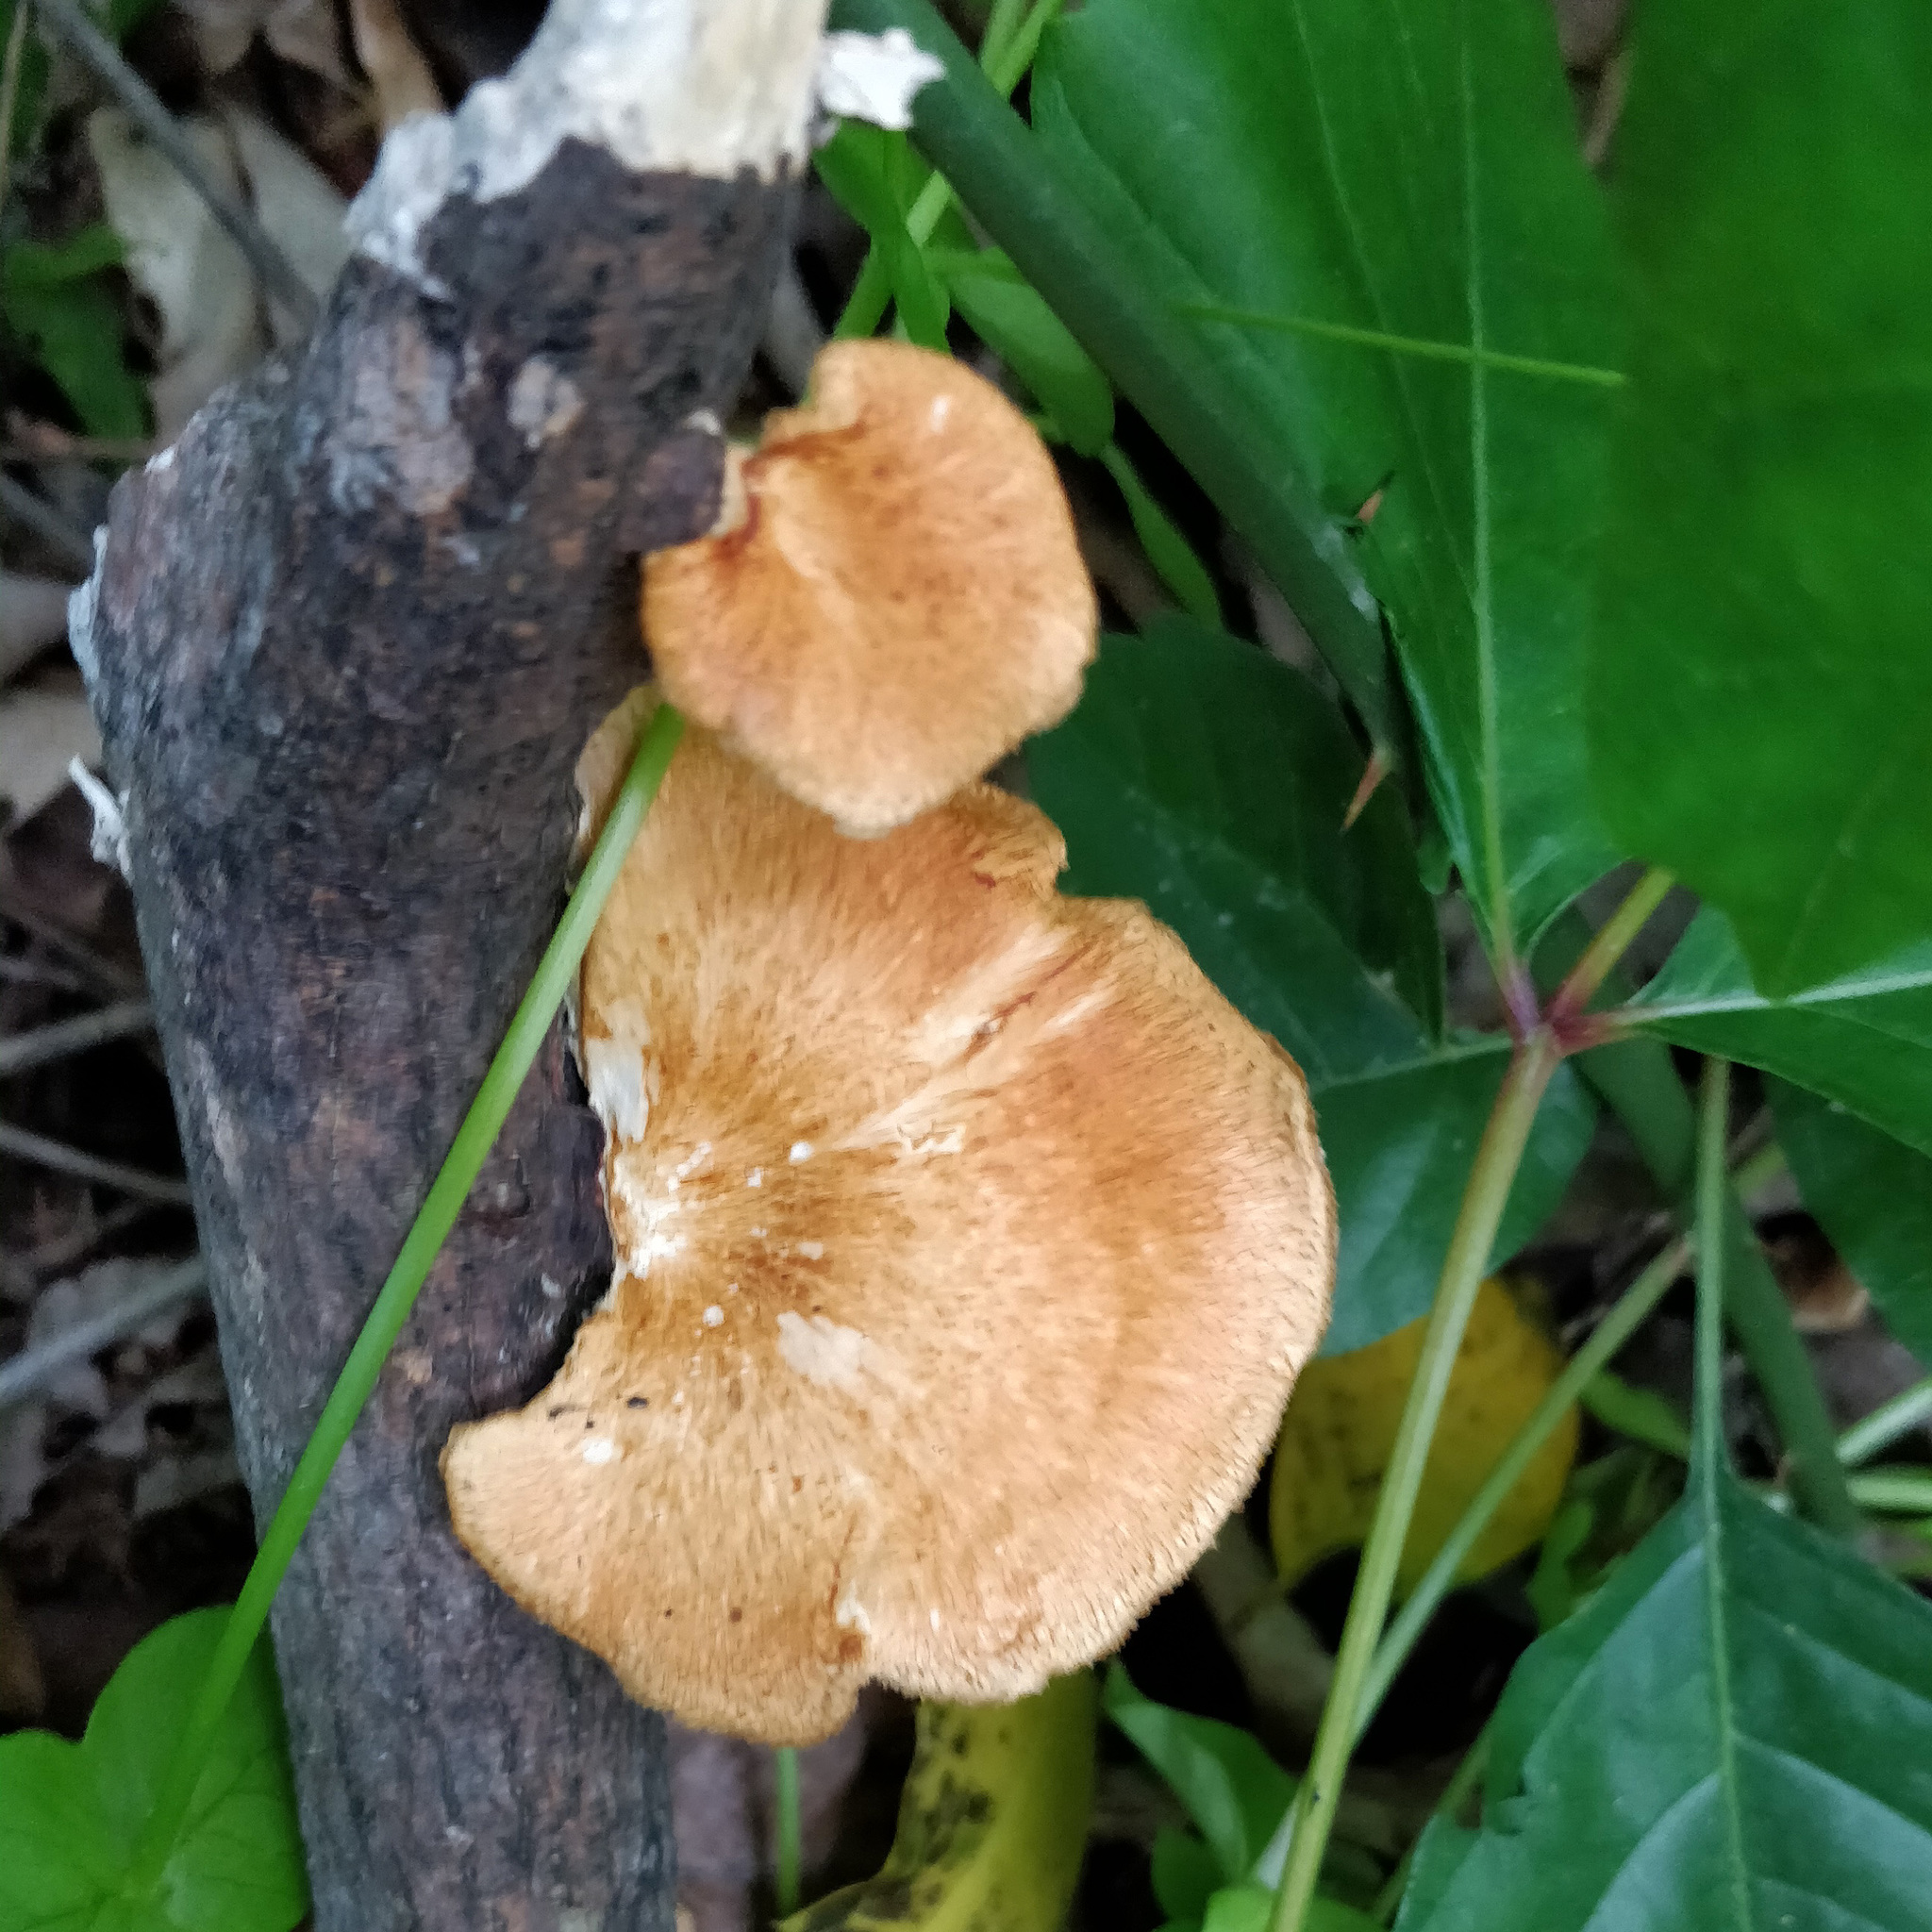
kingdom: Fungi
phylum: Basidiomycota
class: Agaricomycetes
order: Polyporales
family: Polyporaceae
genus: Neofavolus
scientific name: Neofavolus alveolaris
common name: Hexagonal-pored polypore
